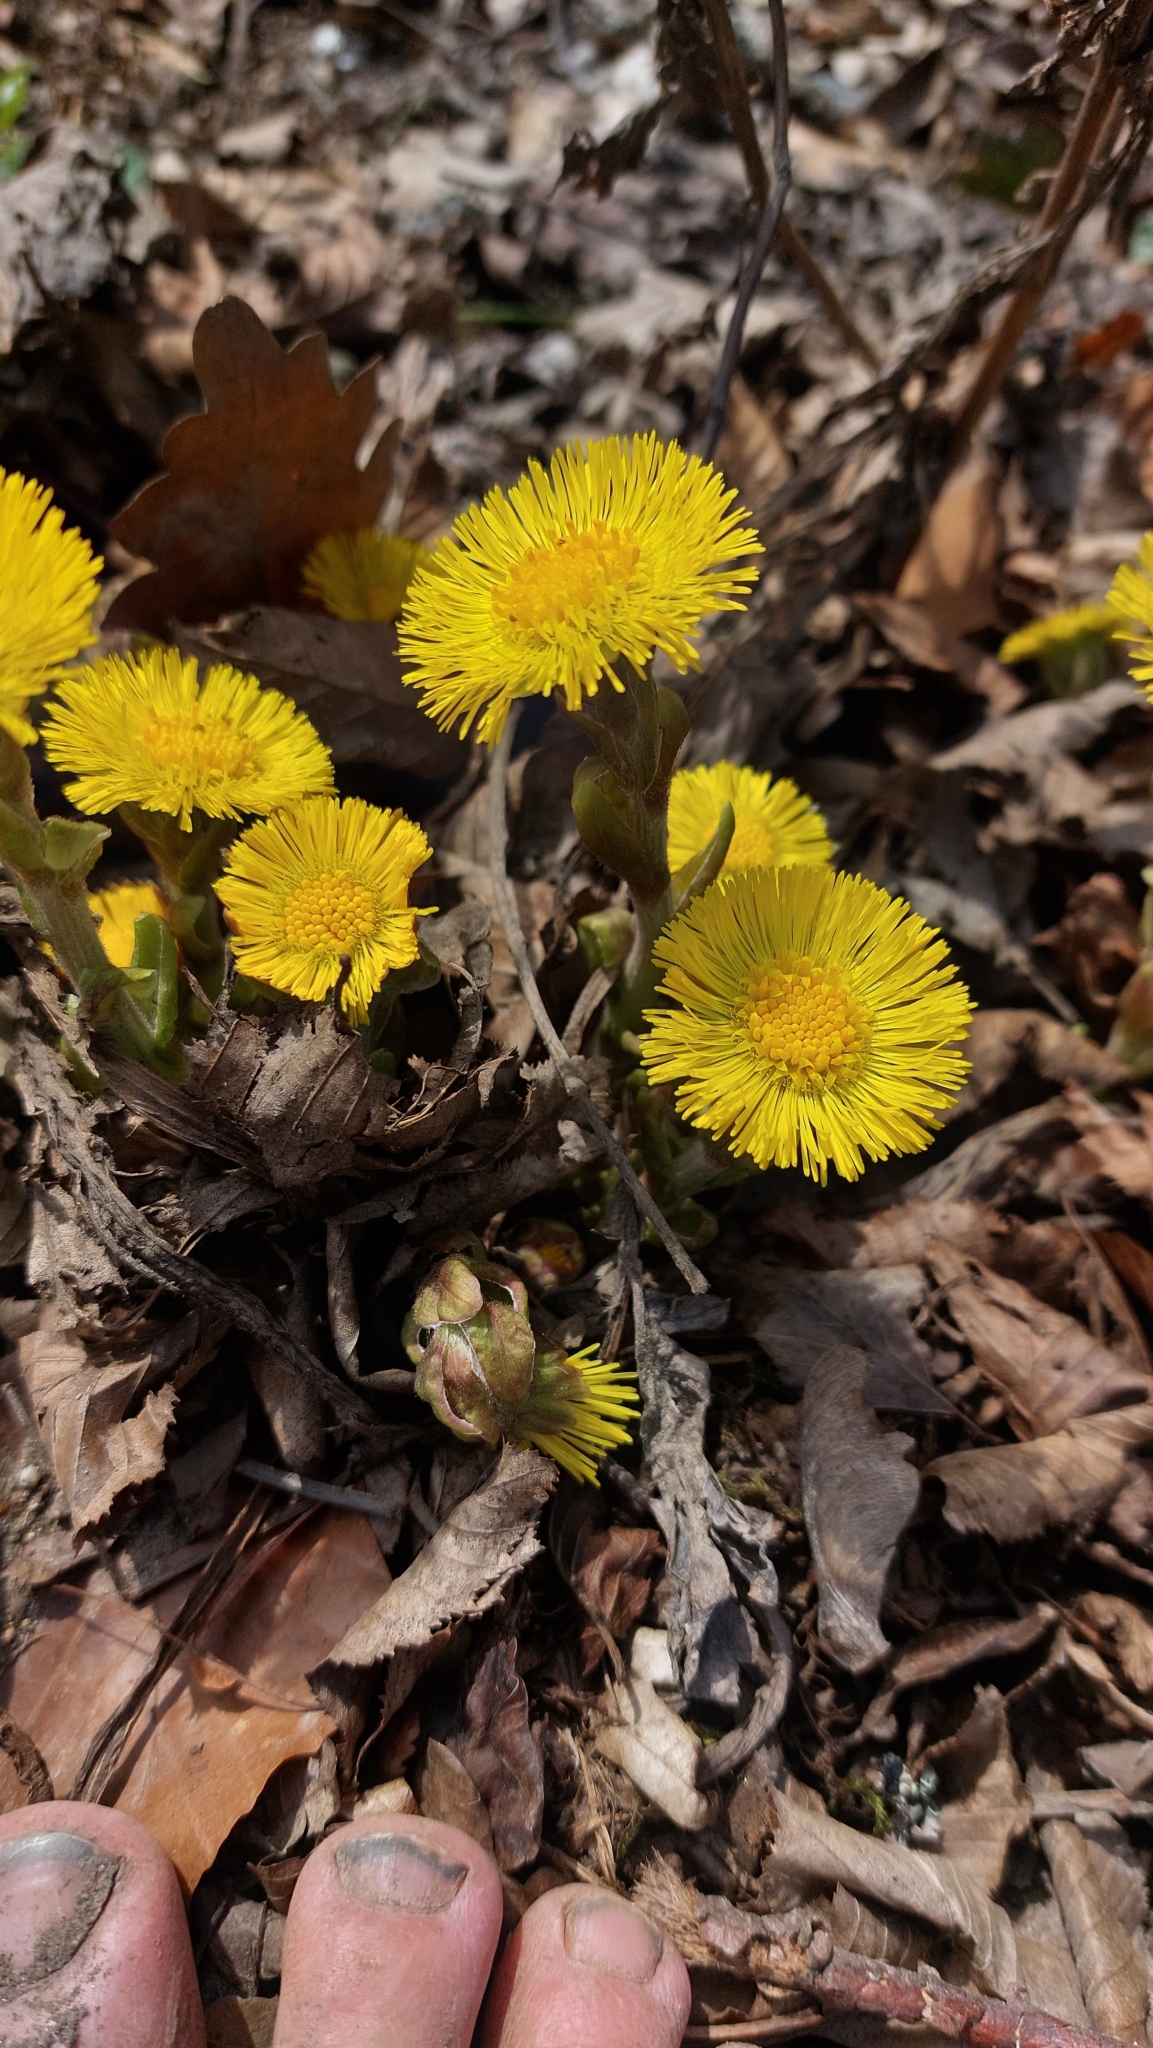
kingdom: Plantae
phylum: Tracheophyta
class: Magnoliopsida
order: Asterales
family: Asteraceae
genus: Tussilago
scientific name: Tussilago farfara
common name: Coltsfoot
